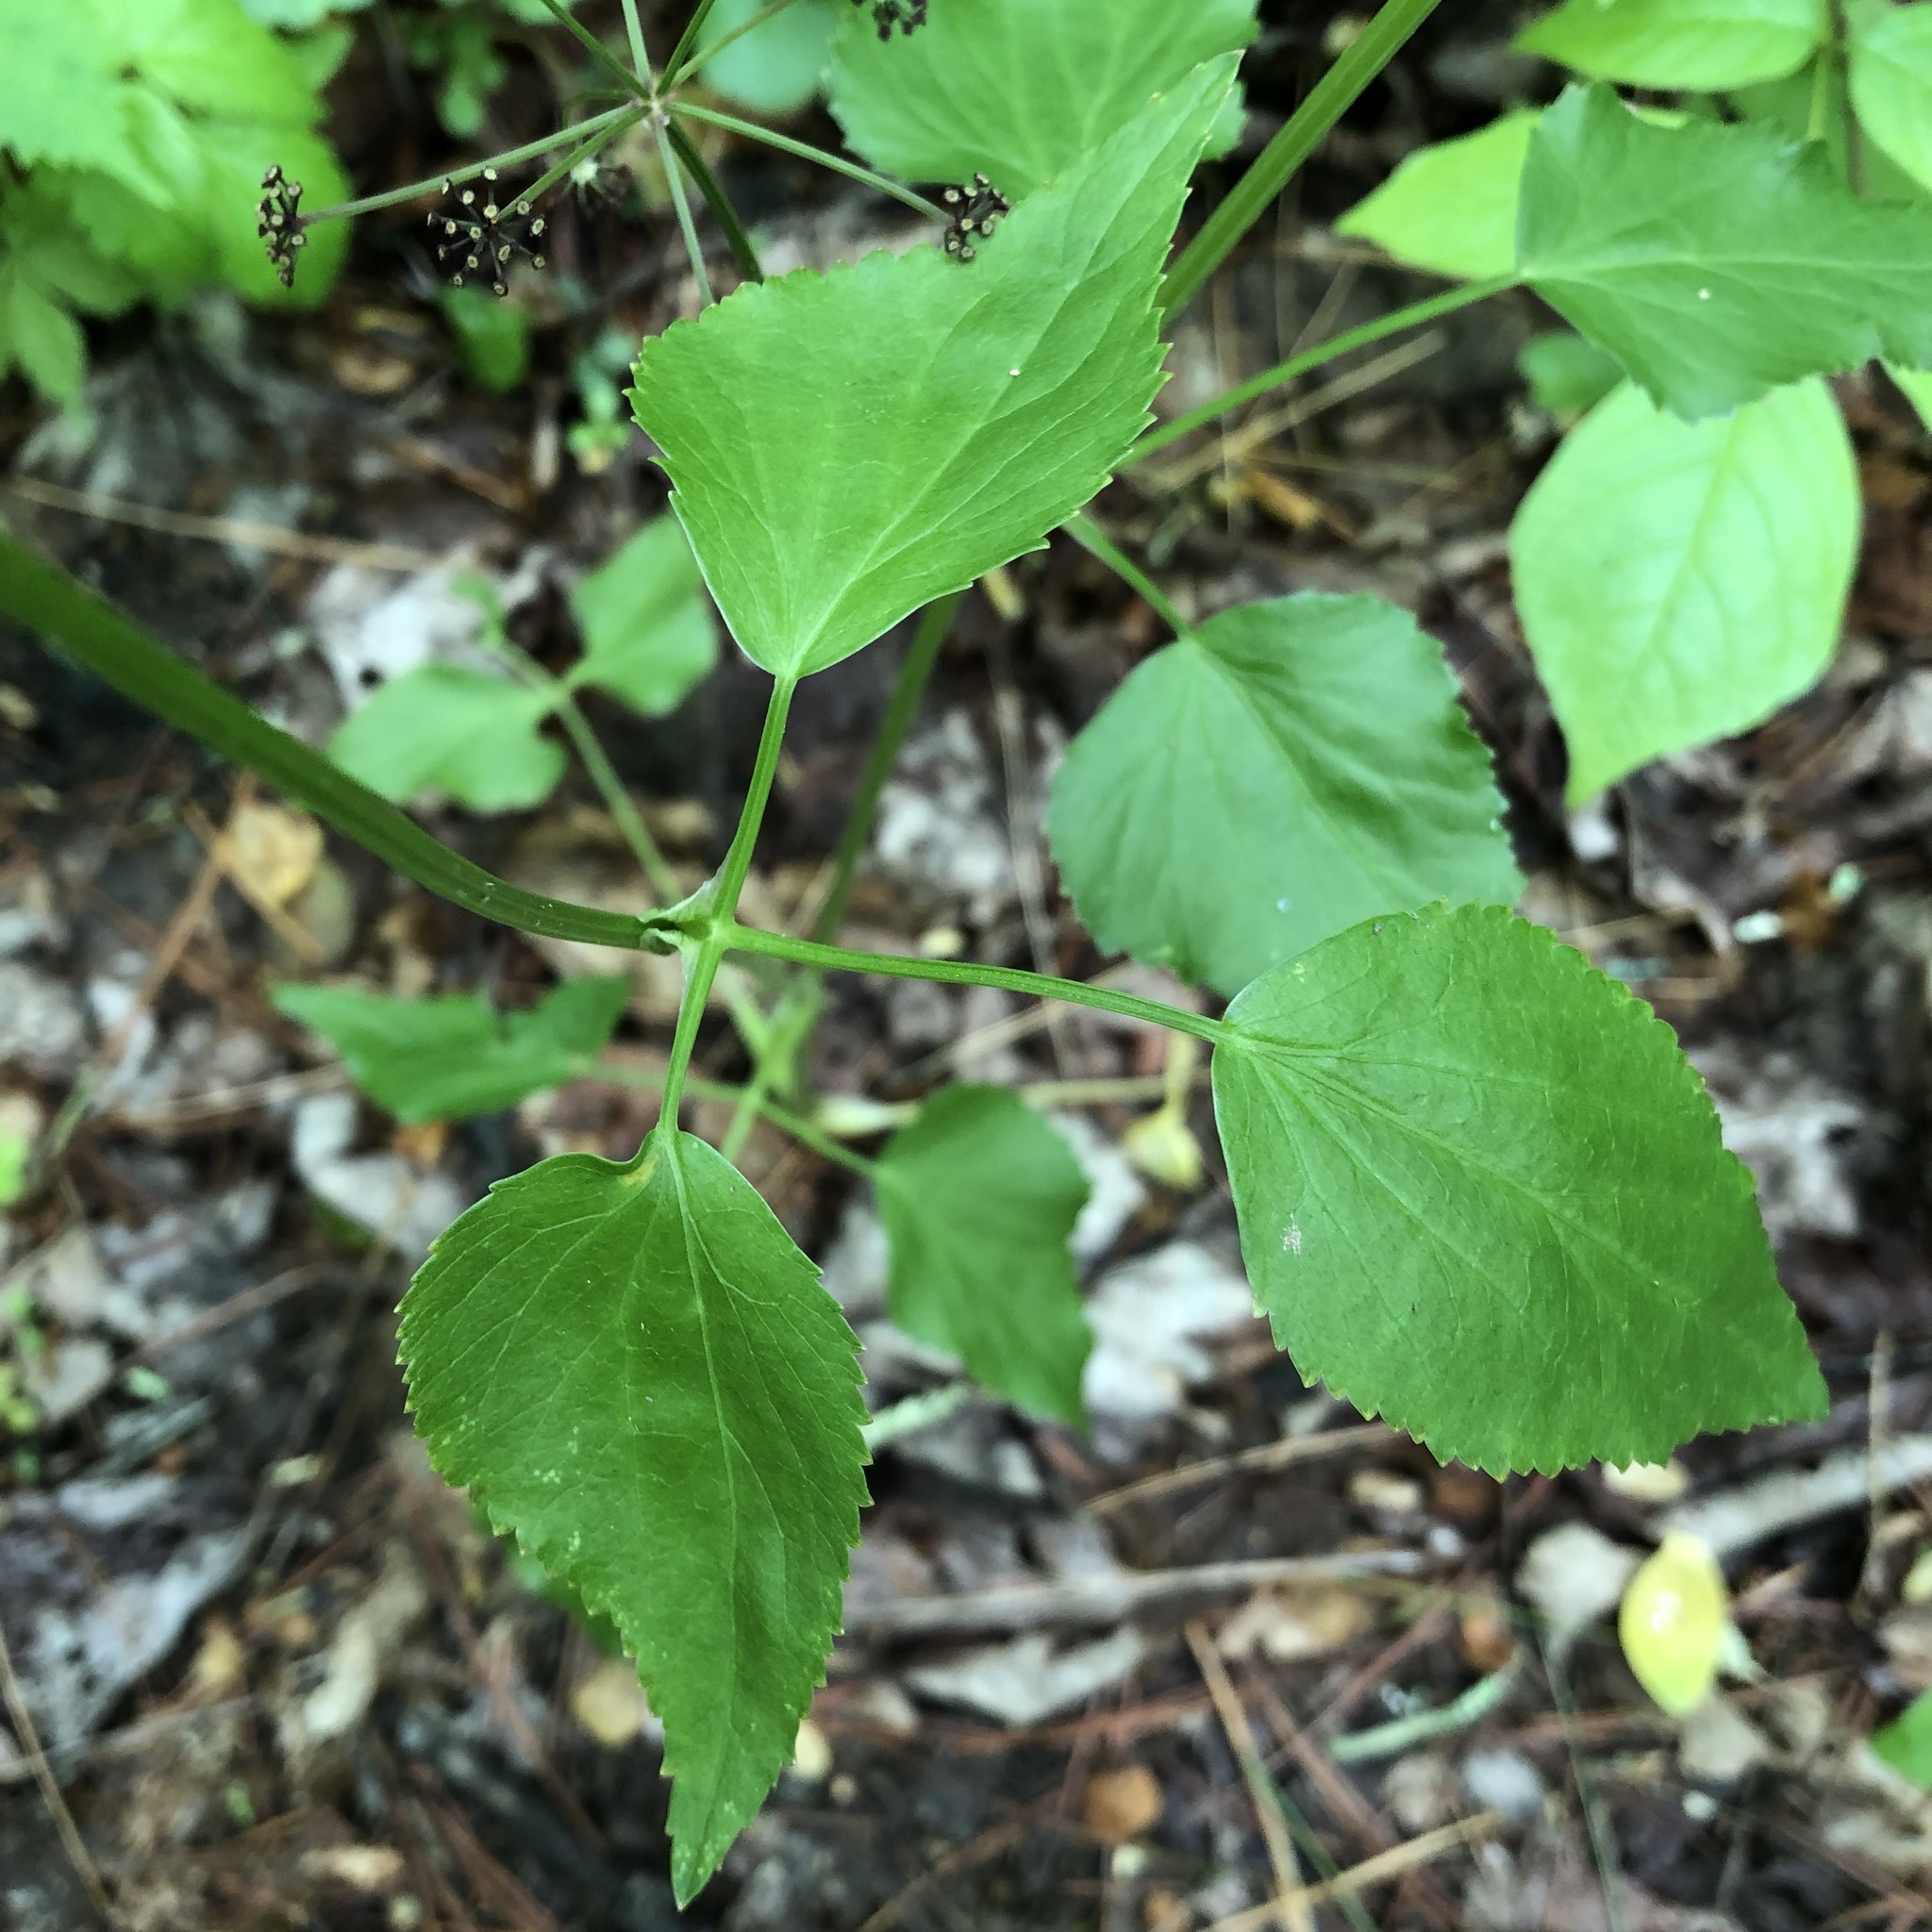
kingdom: Plantae
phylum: Tracheophyta
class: Magnoliopsida
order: Apiales
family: Apiaceae
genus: Thaspium
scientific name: Thaspium trifoliatum
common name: Purple meadow-parsnip
